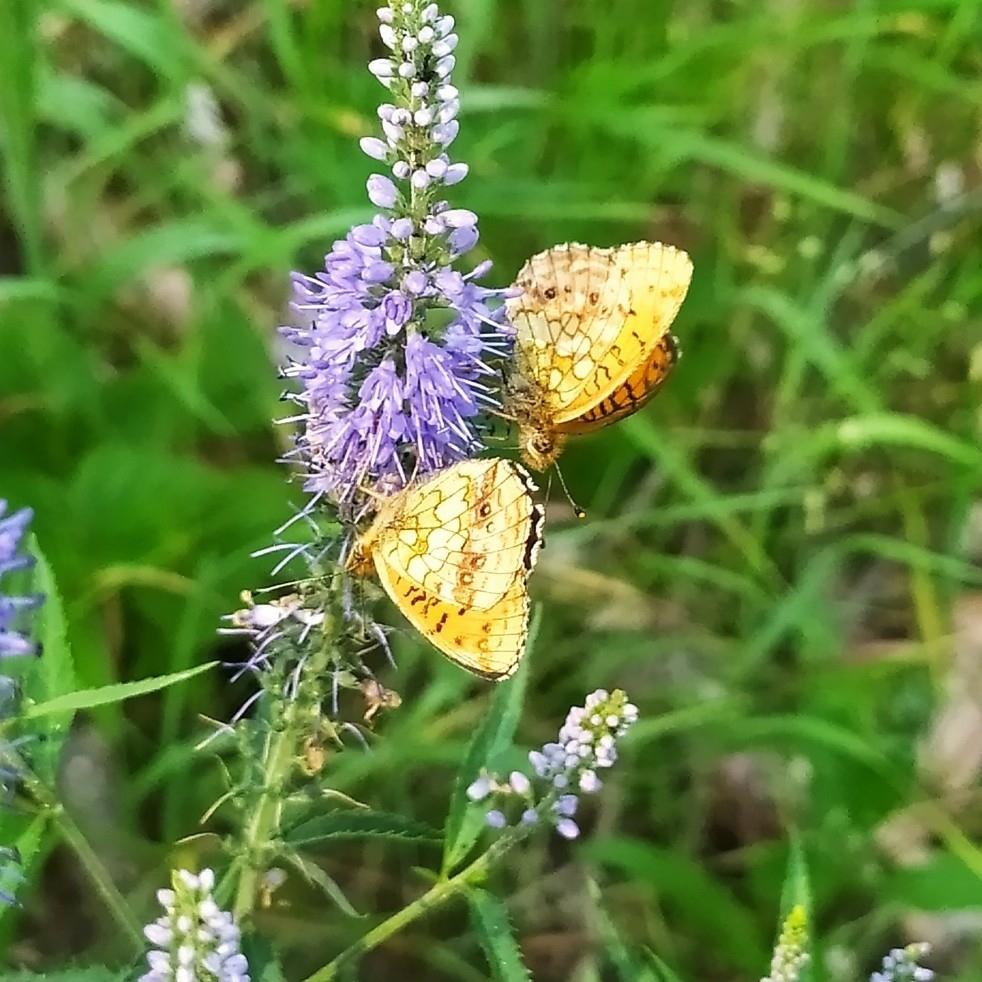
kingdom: Animalia
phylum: Arthropoda
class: Insecta
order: Lepidoptera
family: Nymphalidae
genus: Brenthis
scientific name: Brenthis ino
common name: Lesser marbled fritillary
